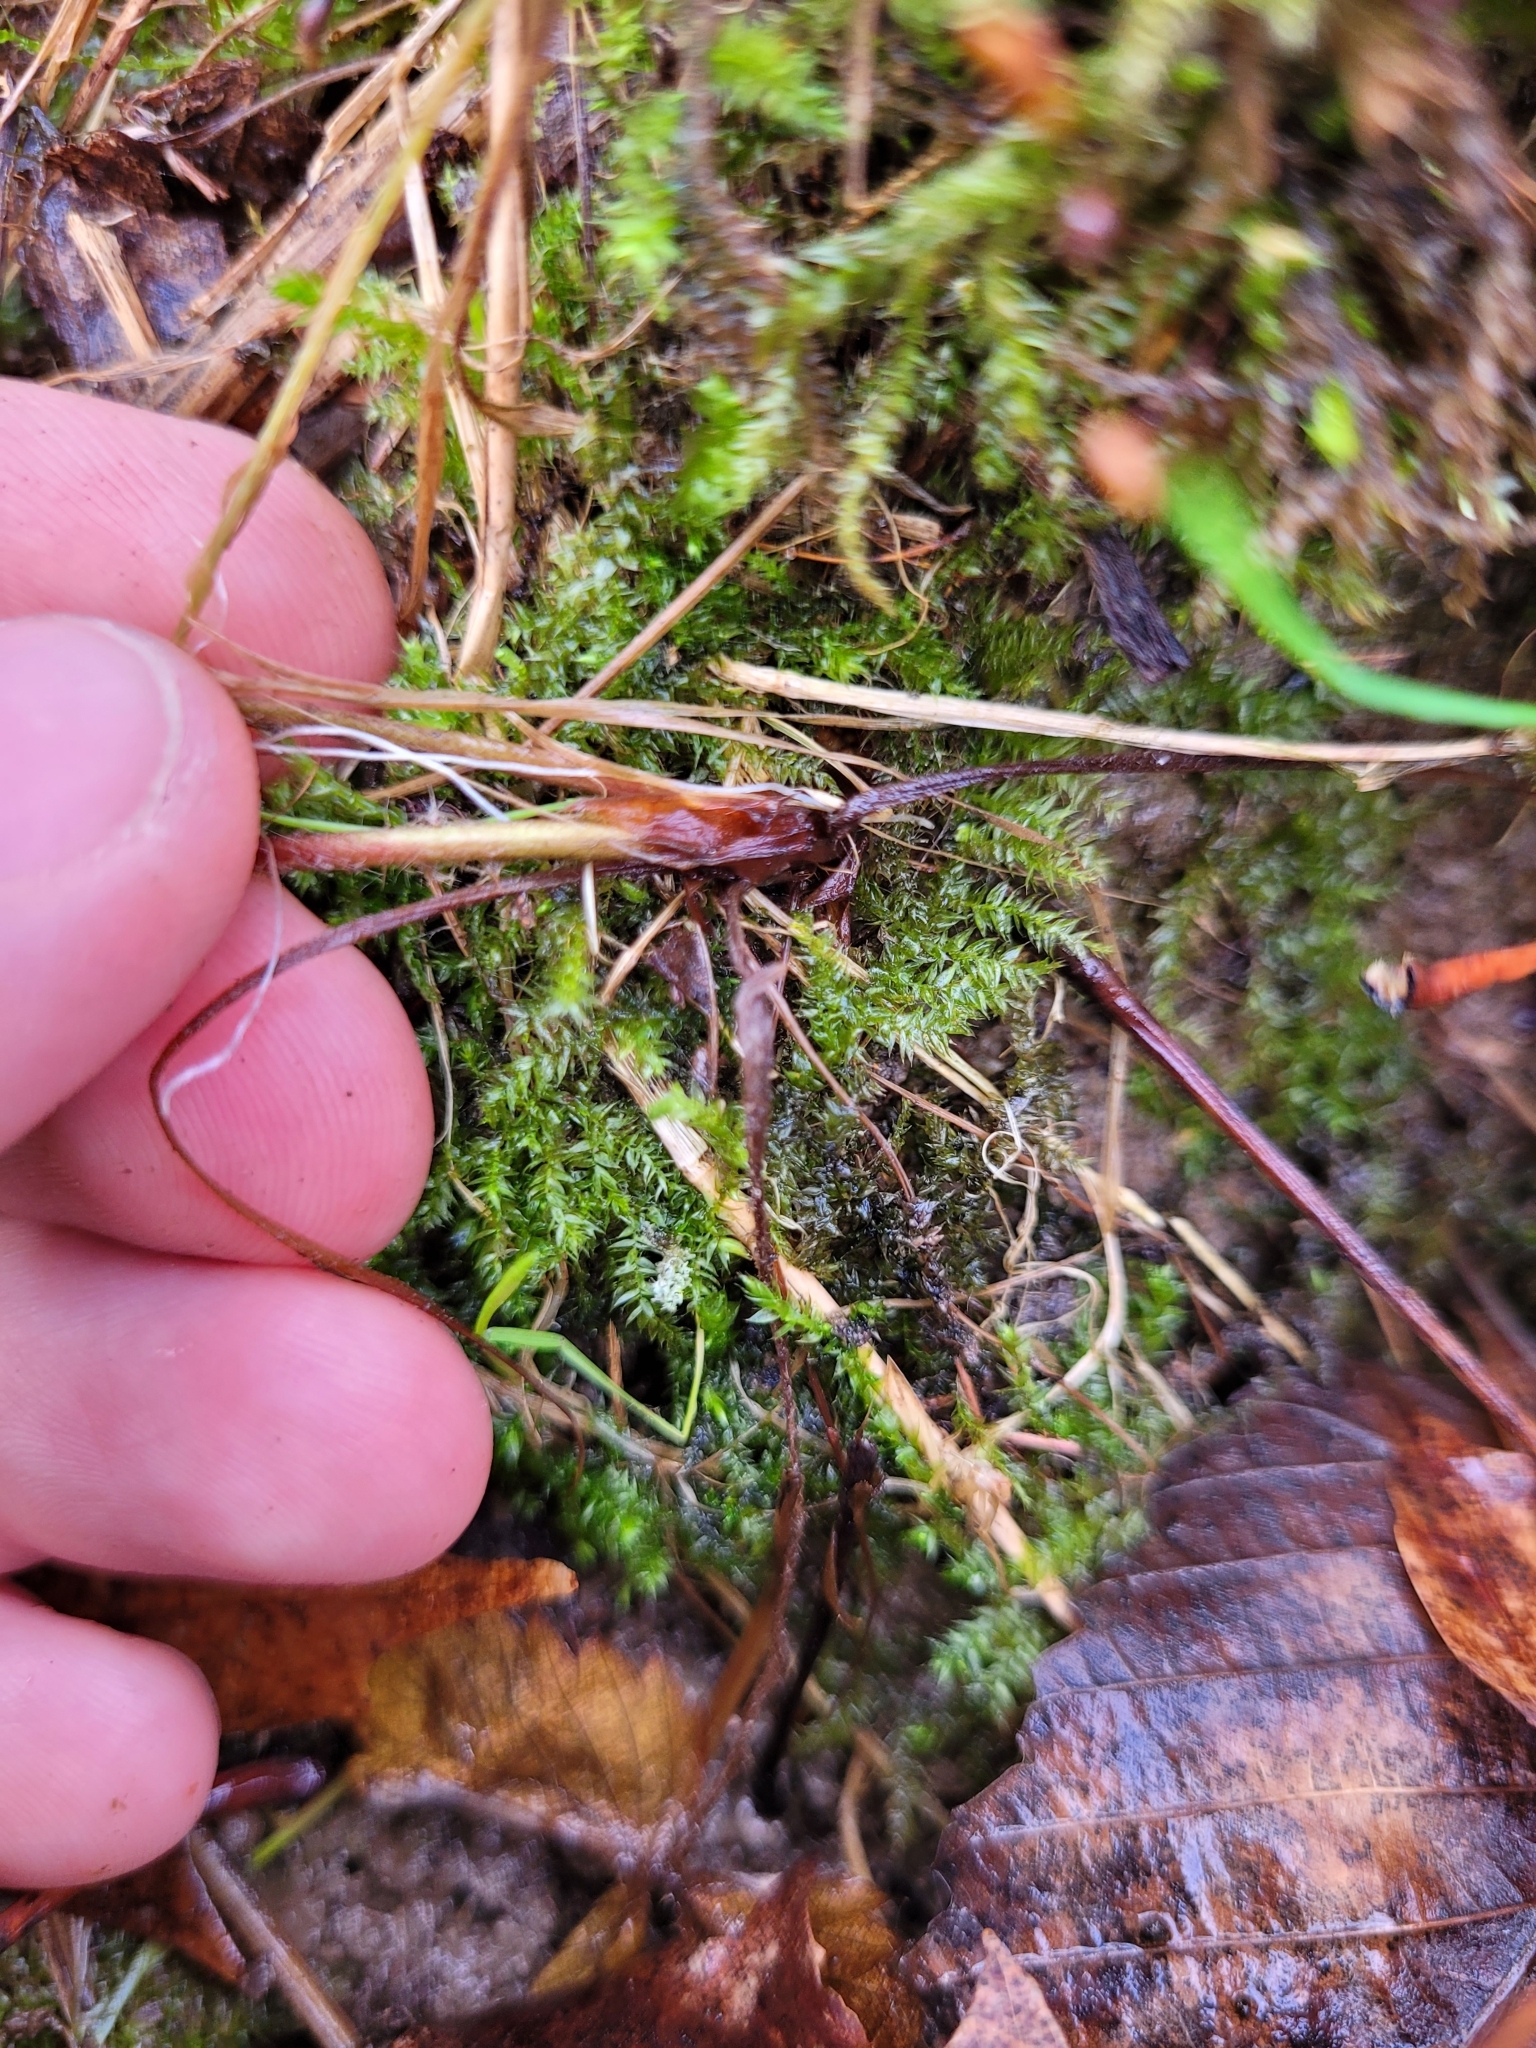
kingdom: Plantae
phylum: Tracheophyta
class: Magnoliopsida
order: Rosales
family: Rosaceae
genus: Fragaria
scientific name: Fragaria virginiana
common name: Thickleaved wild strawberry
